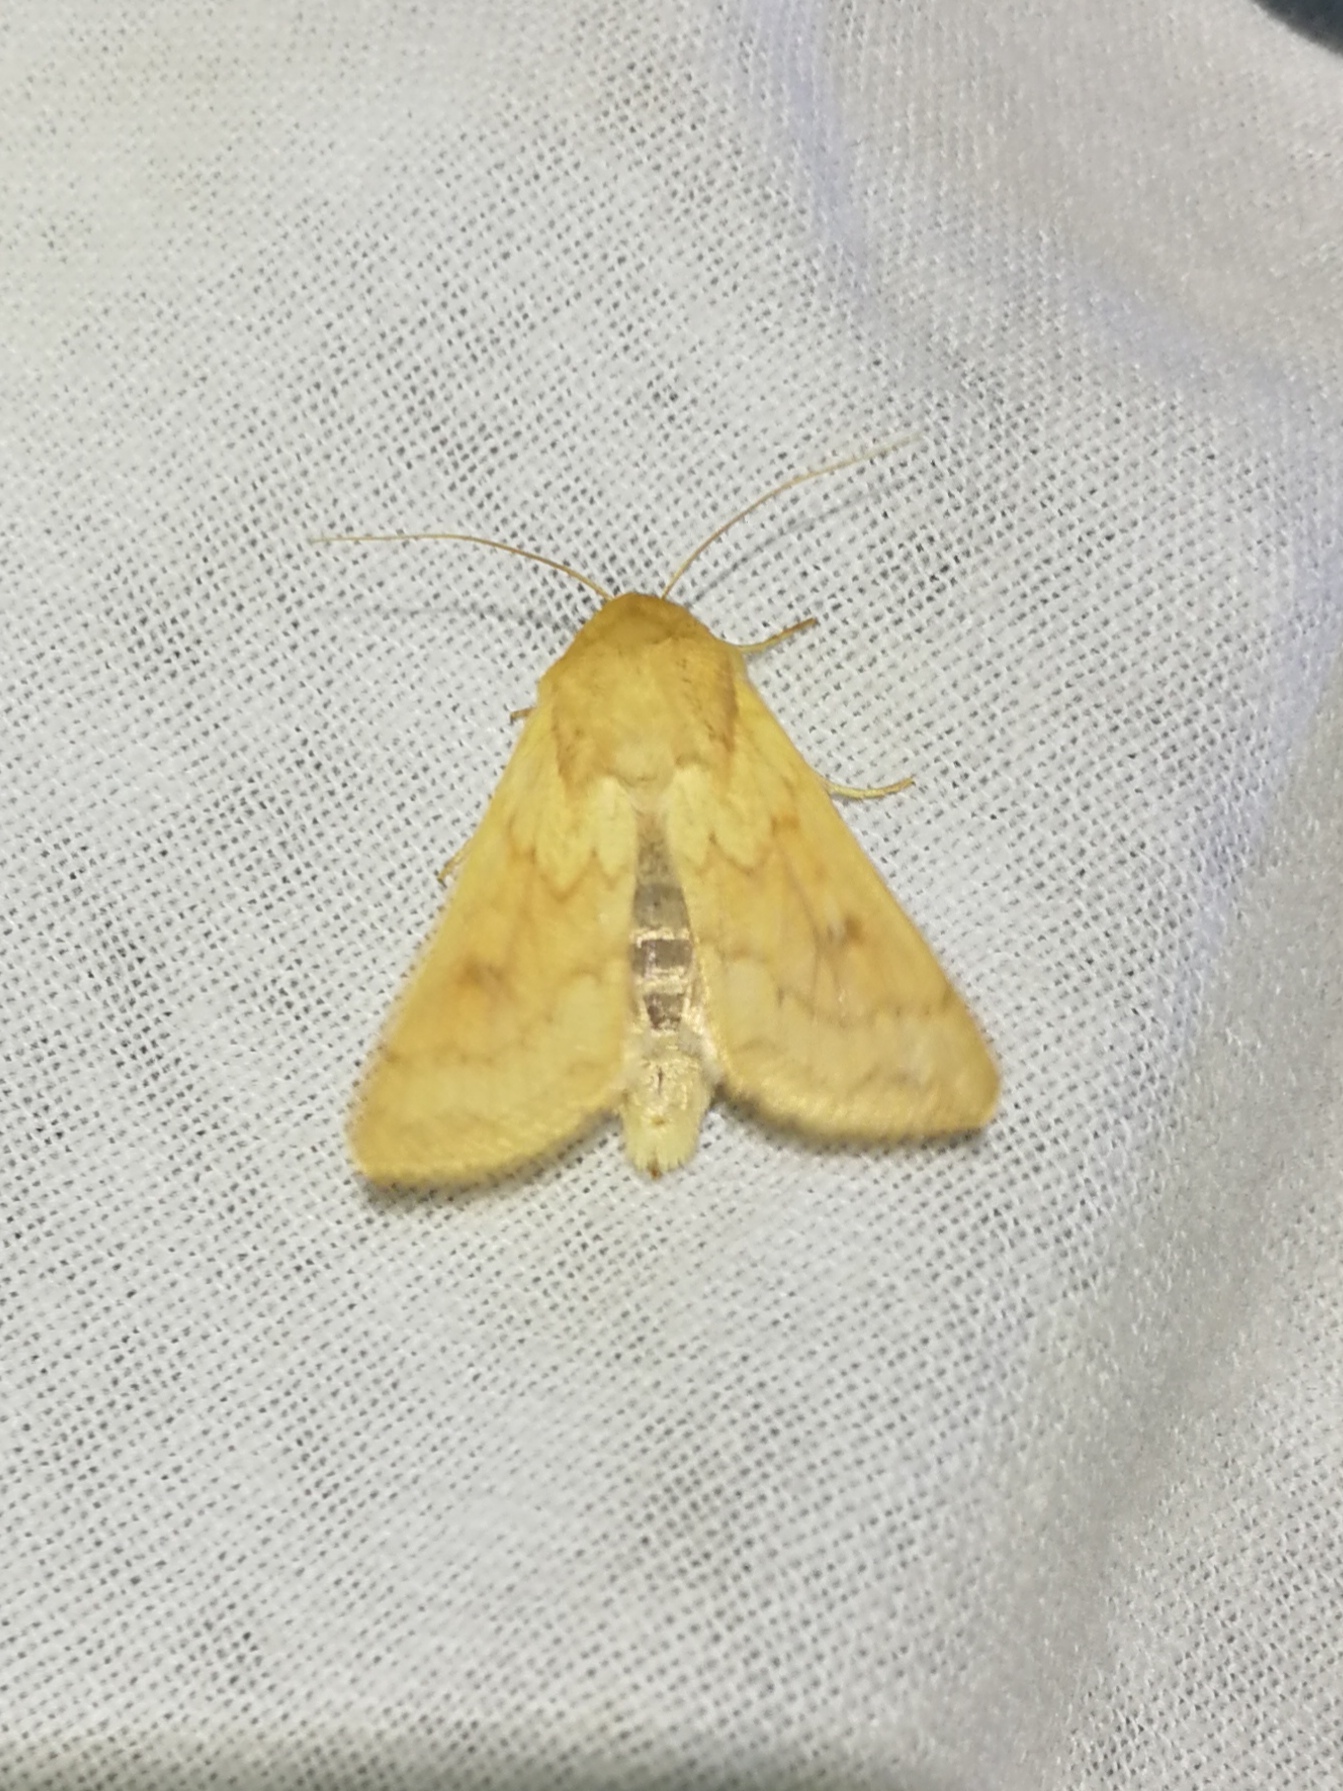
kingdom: Animalia
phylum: Arthropoda
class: Insecta
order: Lepidoptera
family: Noctuidae
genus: Mythimna
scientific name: Mythimna vitellina
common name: Delicate
